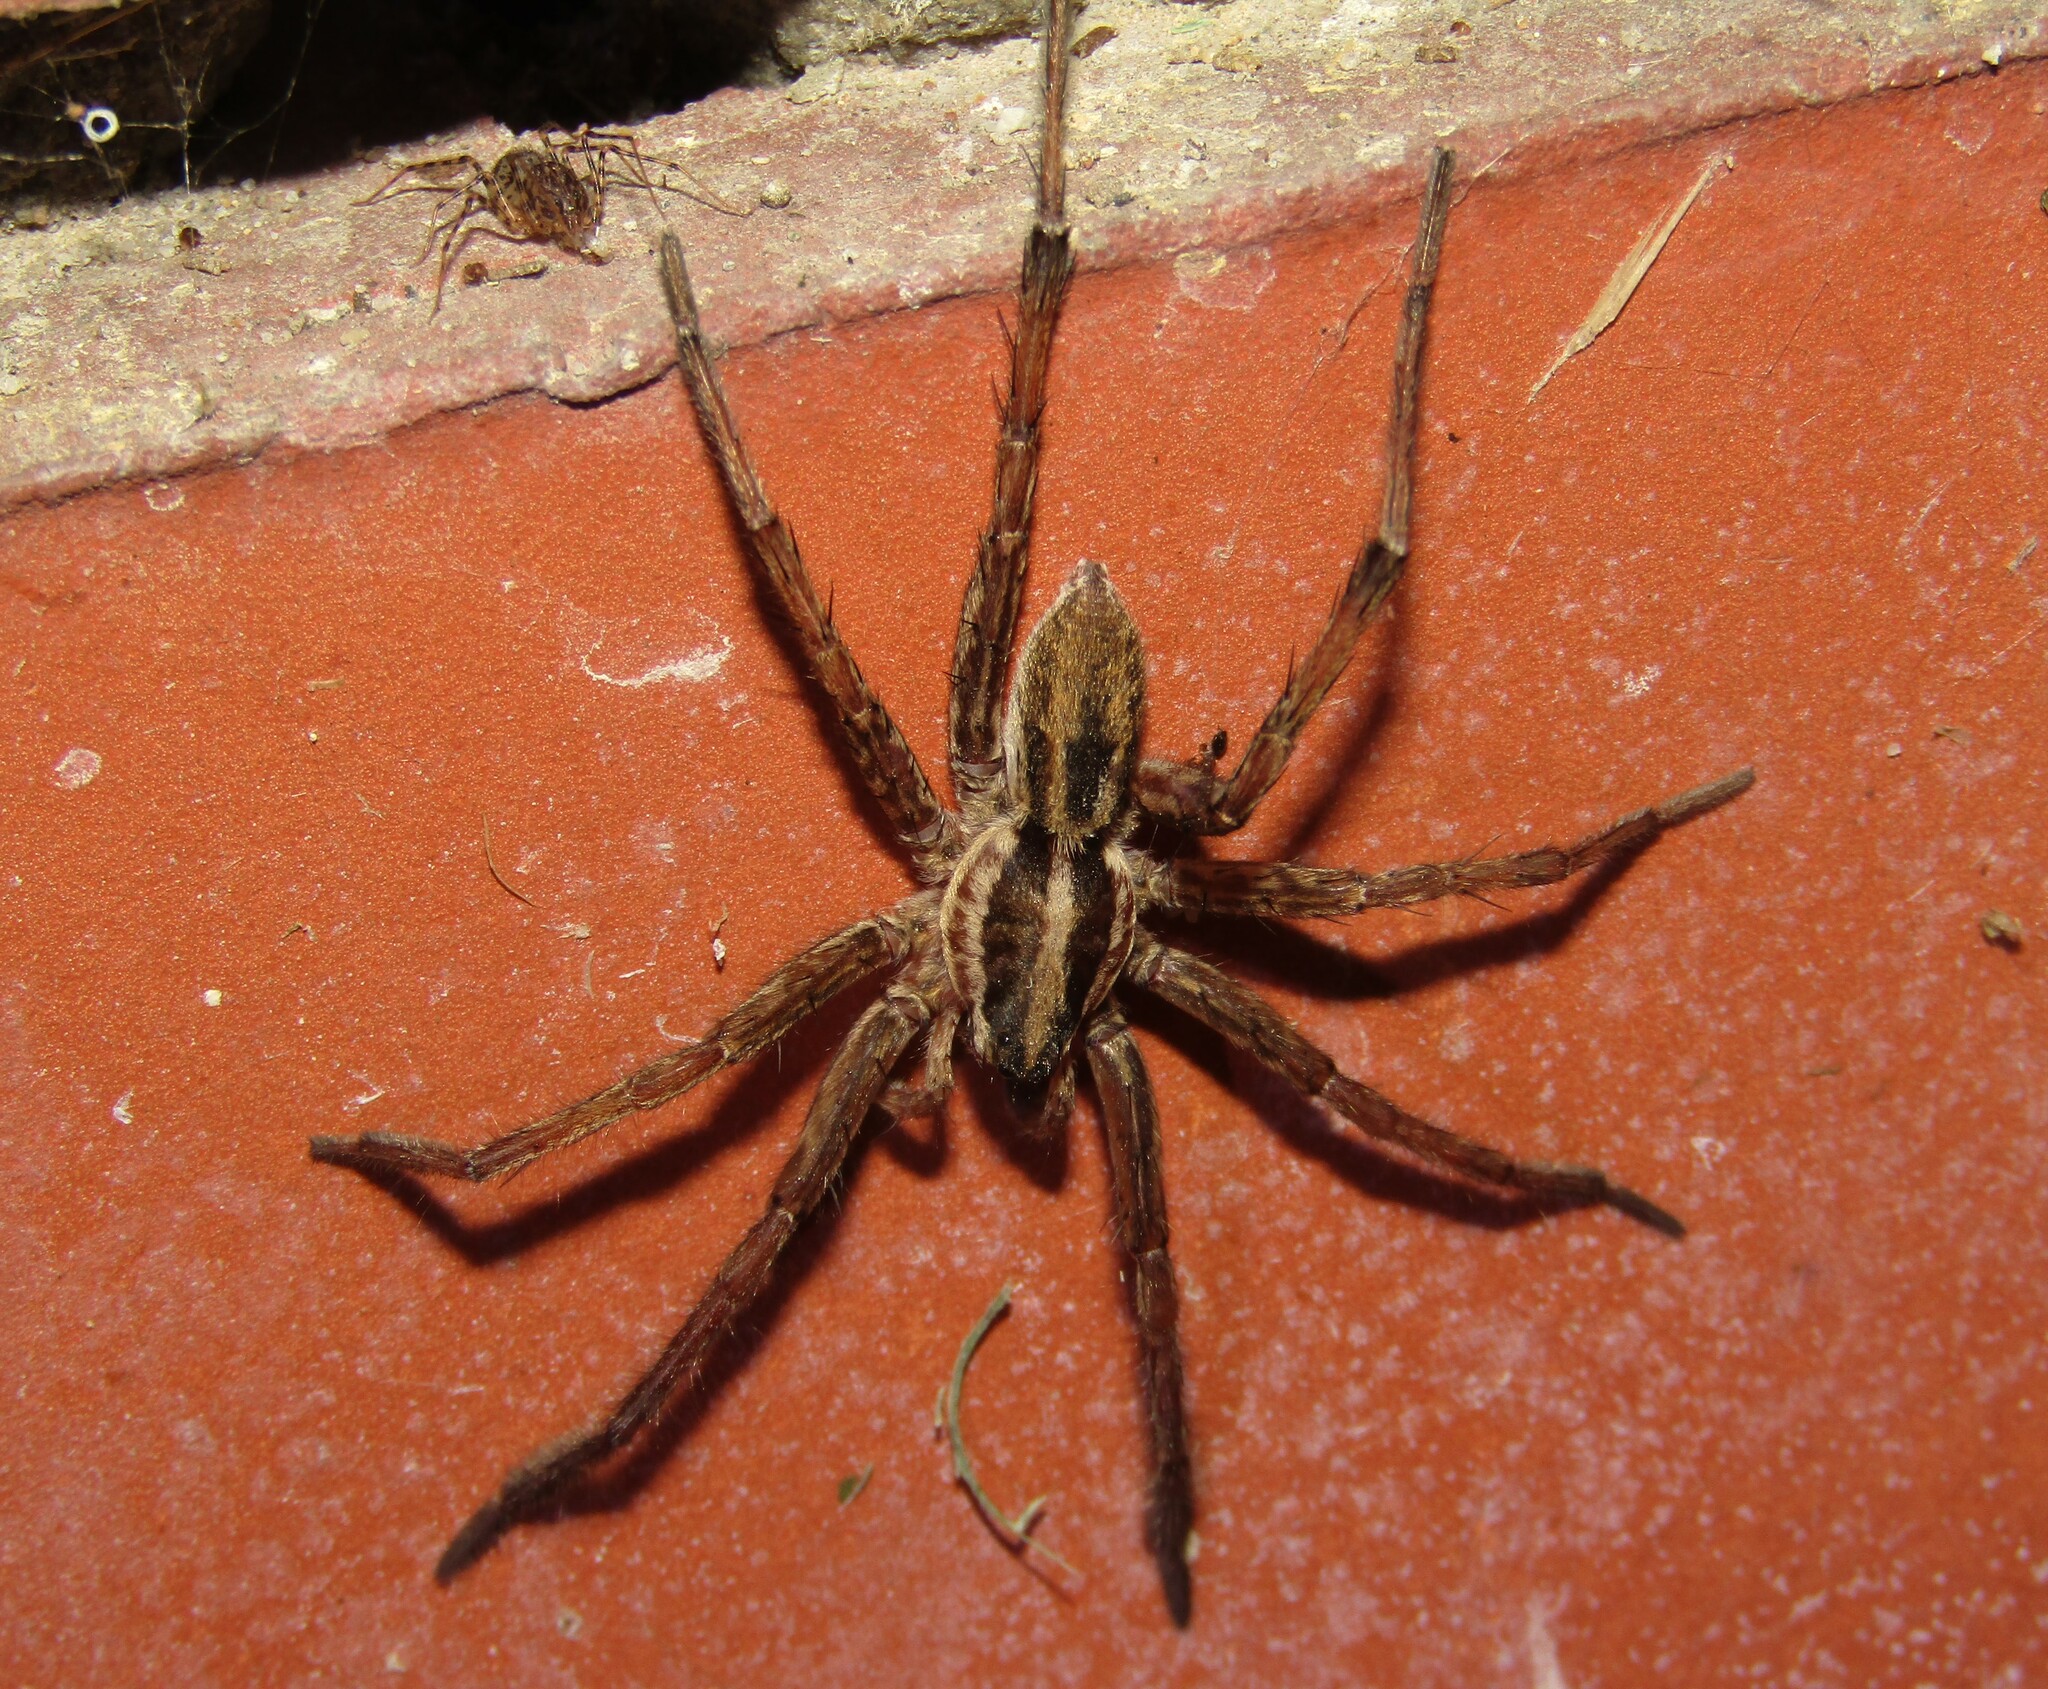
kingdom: Animalia
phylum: Arthropoda
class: Arachnida
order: Araneae
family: Lycosidae
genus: Hogna
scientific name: Hogna radiata
